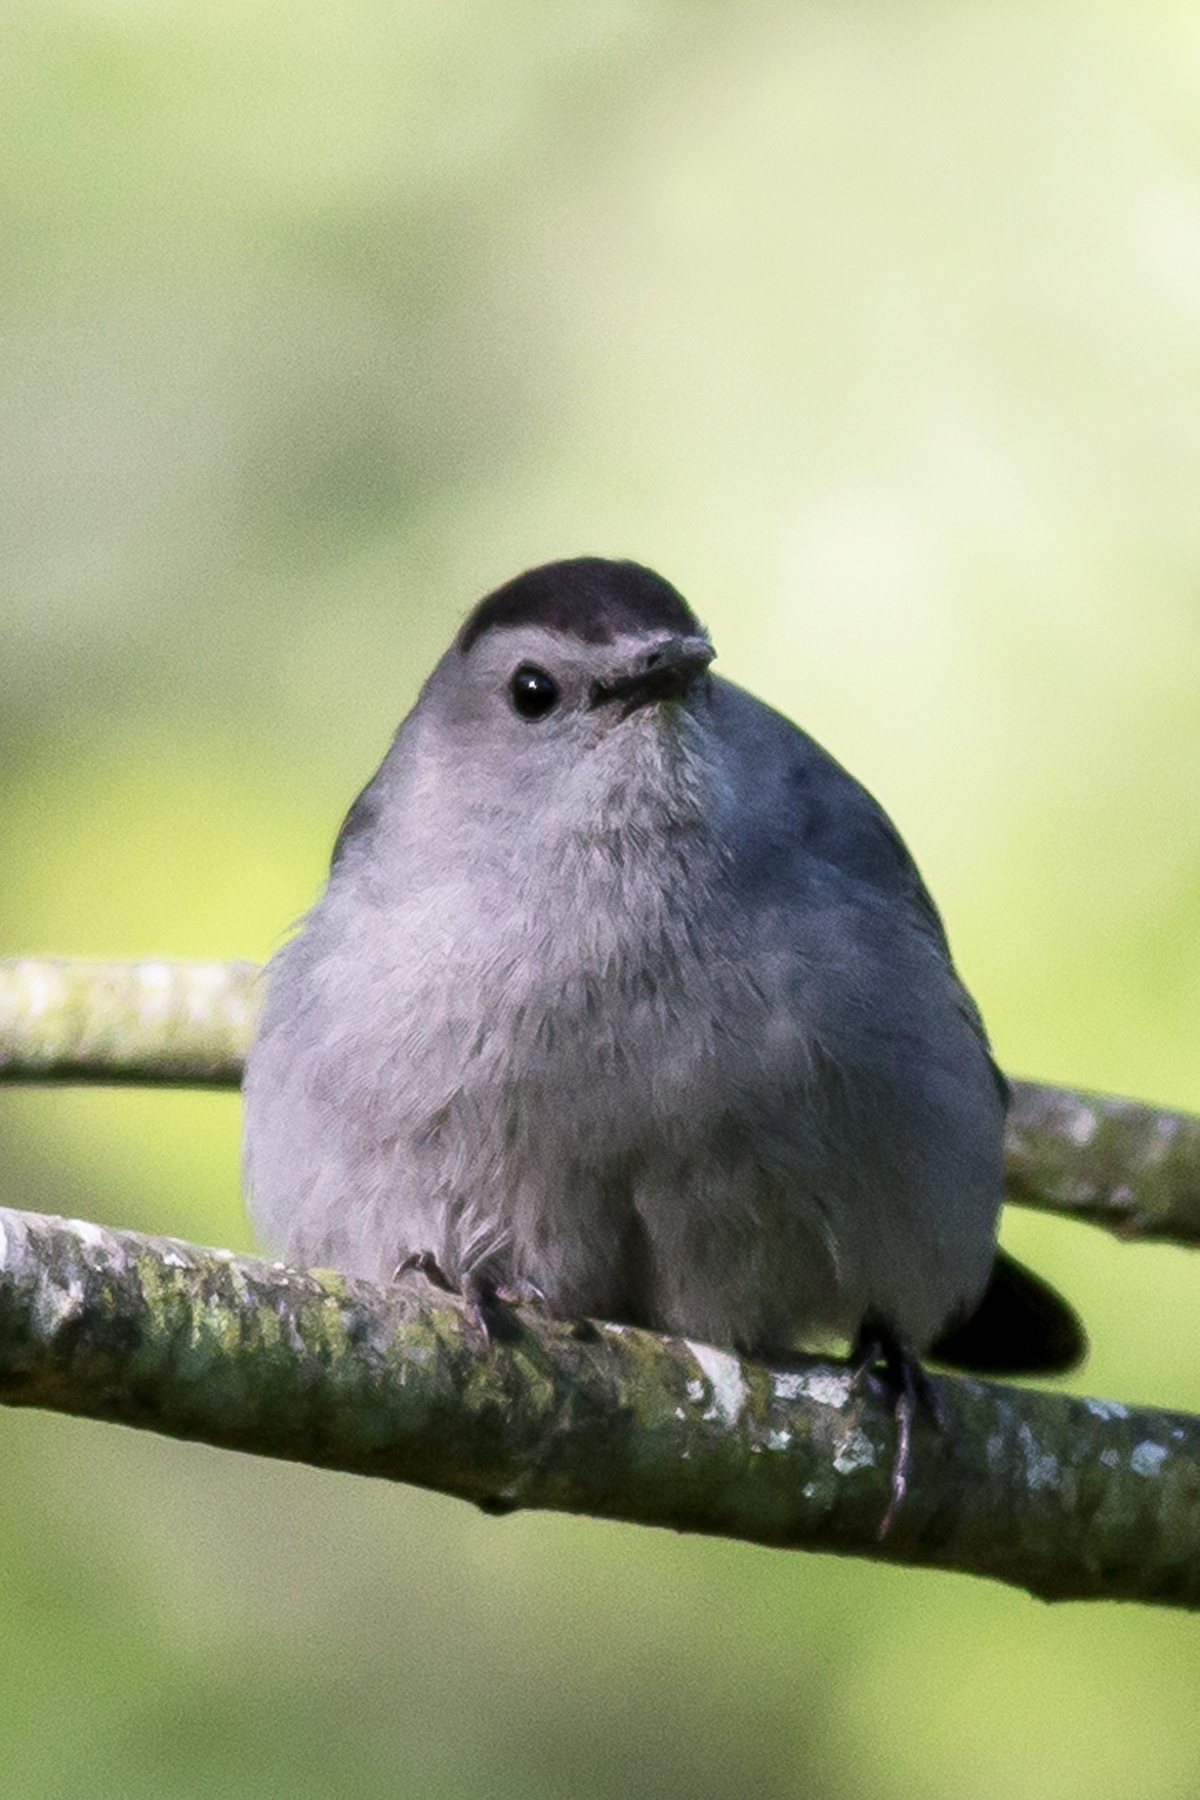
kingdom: Animalia
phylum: Chordata
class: Aves
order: Passeriformes
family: Mimidae
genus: Dumetella
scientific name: Dumetella carolinensis
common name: Gray catbird
